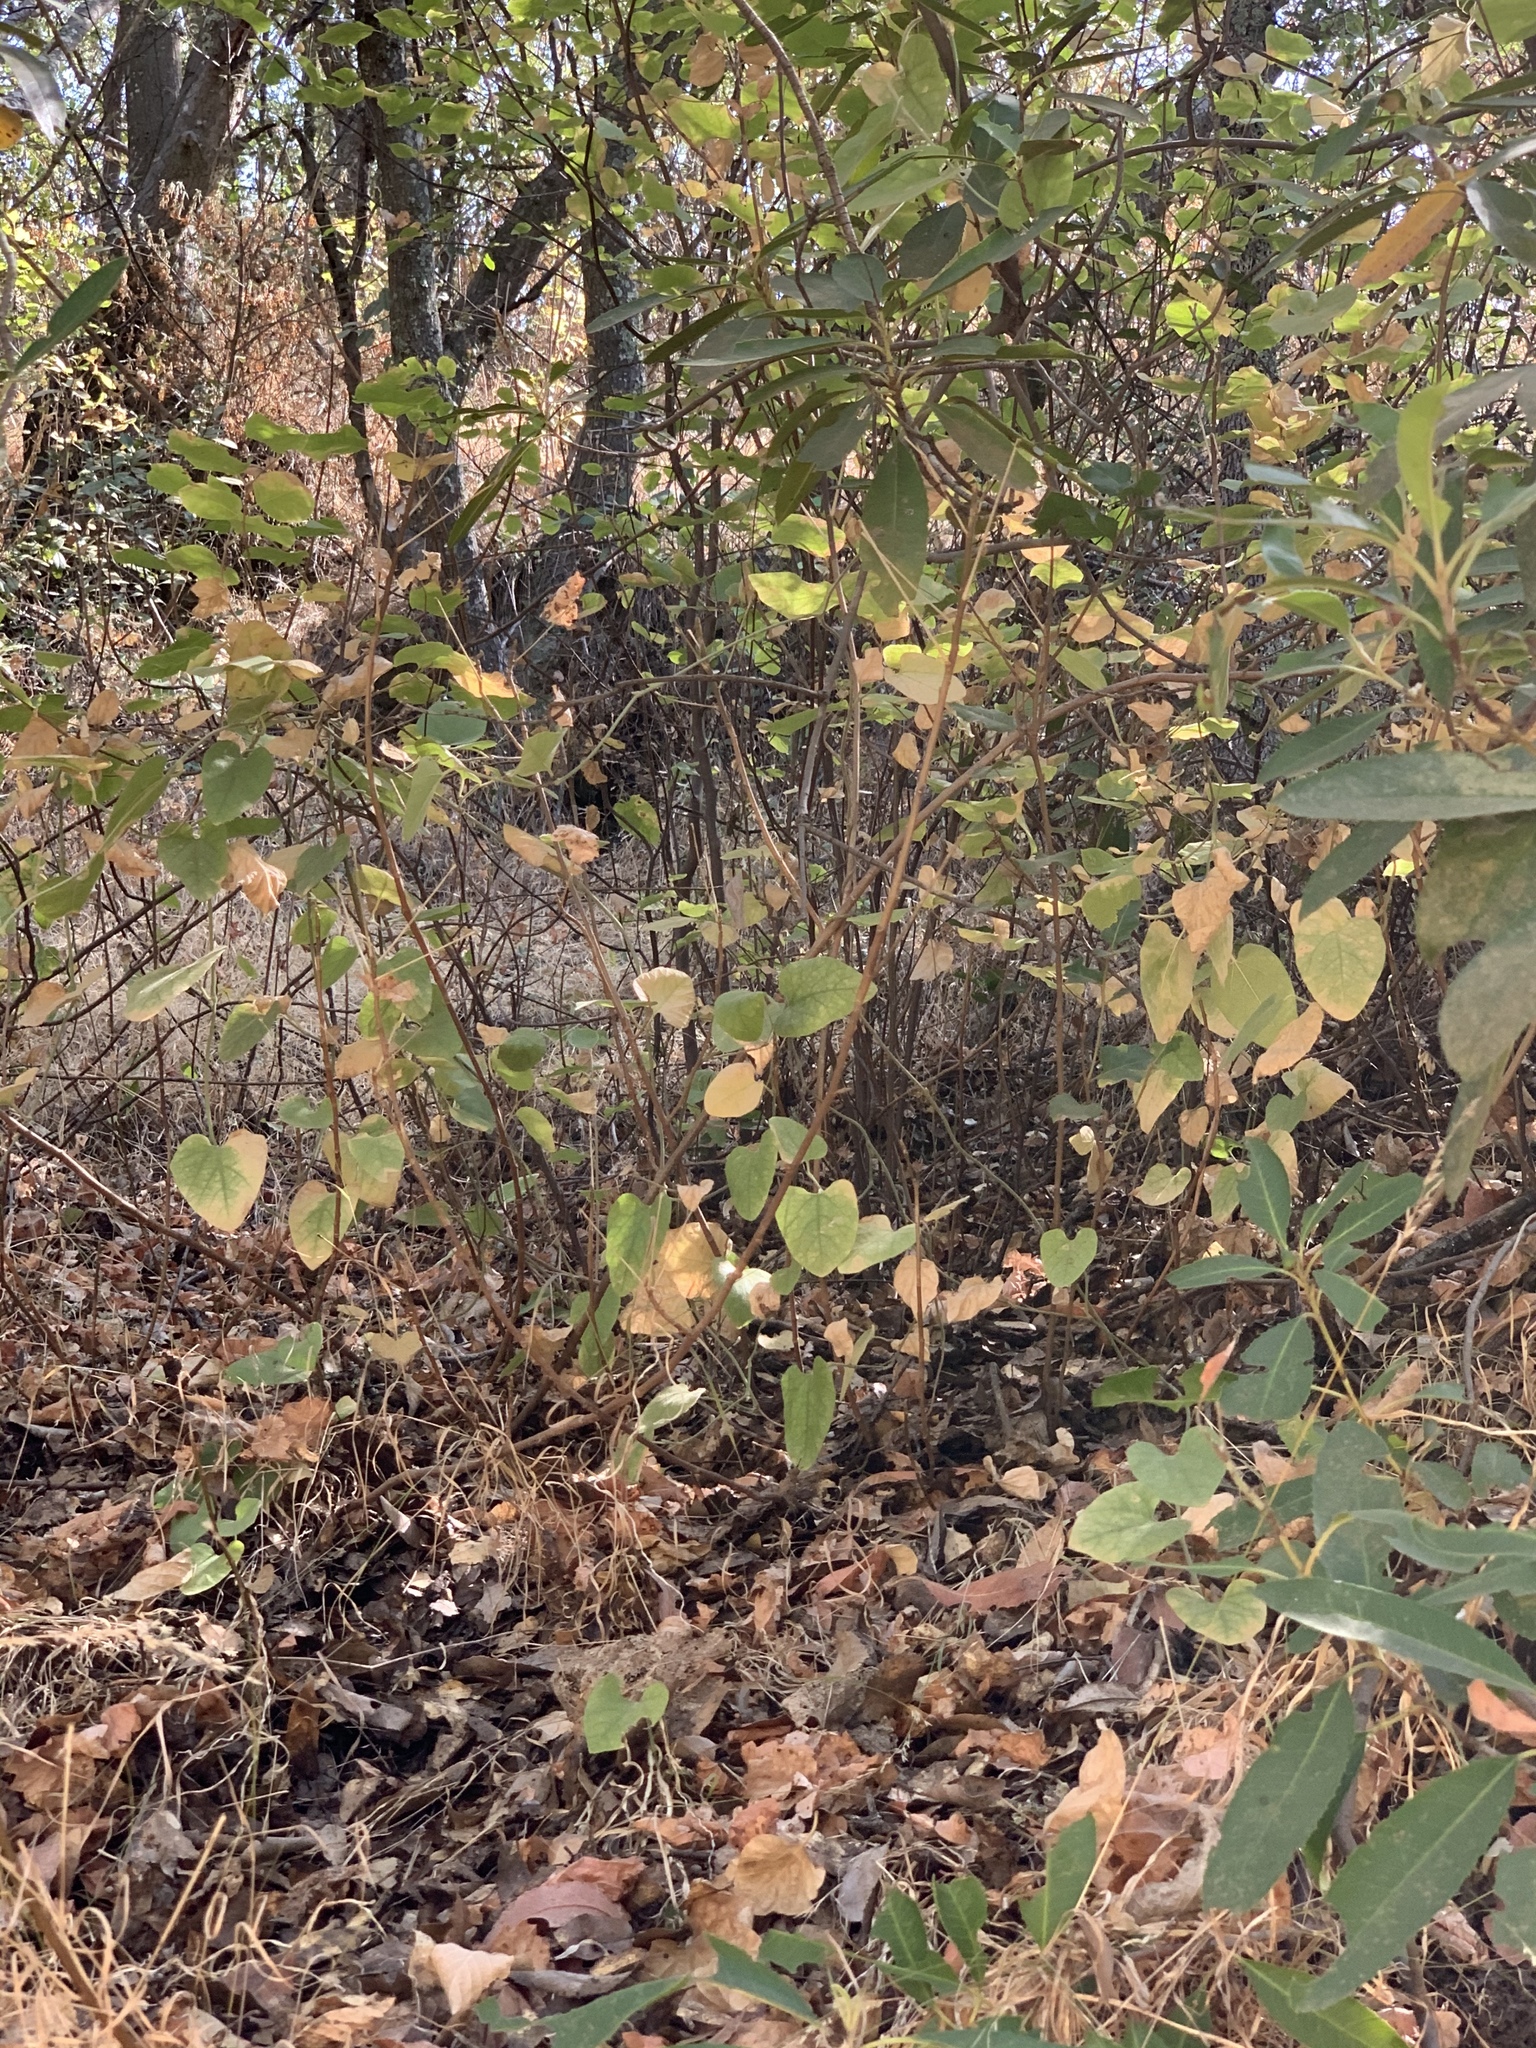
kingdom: Plantae
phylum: Tracheophyta
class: Magnoliopsida
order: Piperales
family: Aristolochiaceae
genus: Isotrema
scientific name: Isotrema californicum
